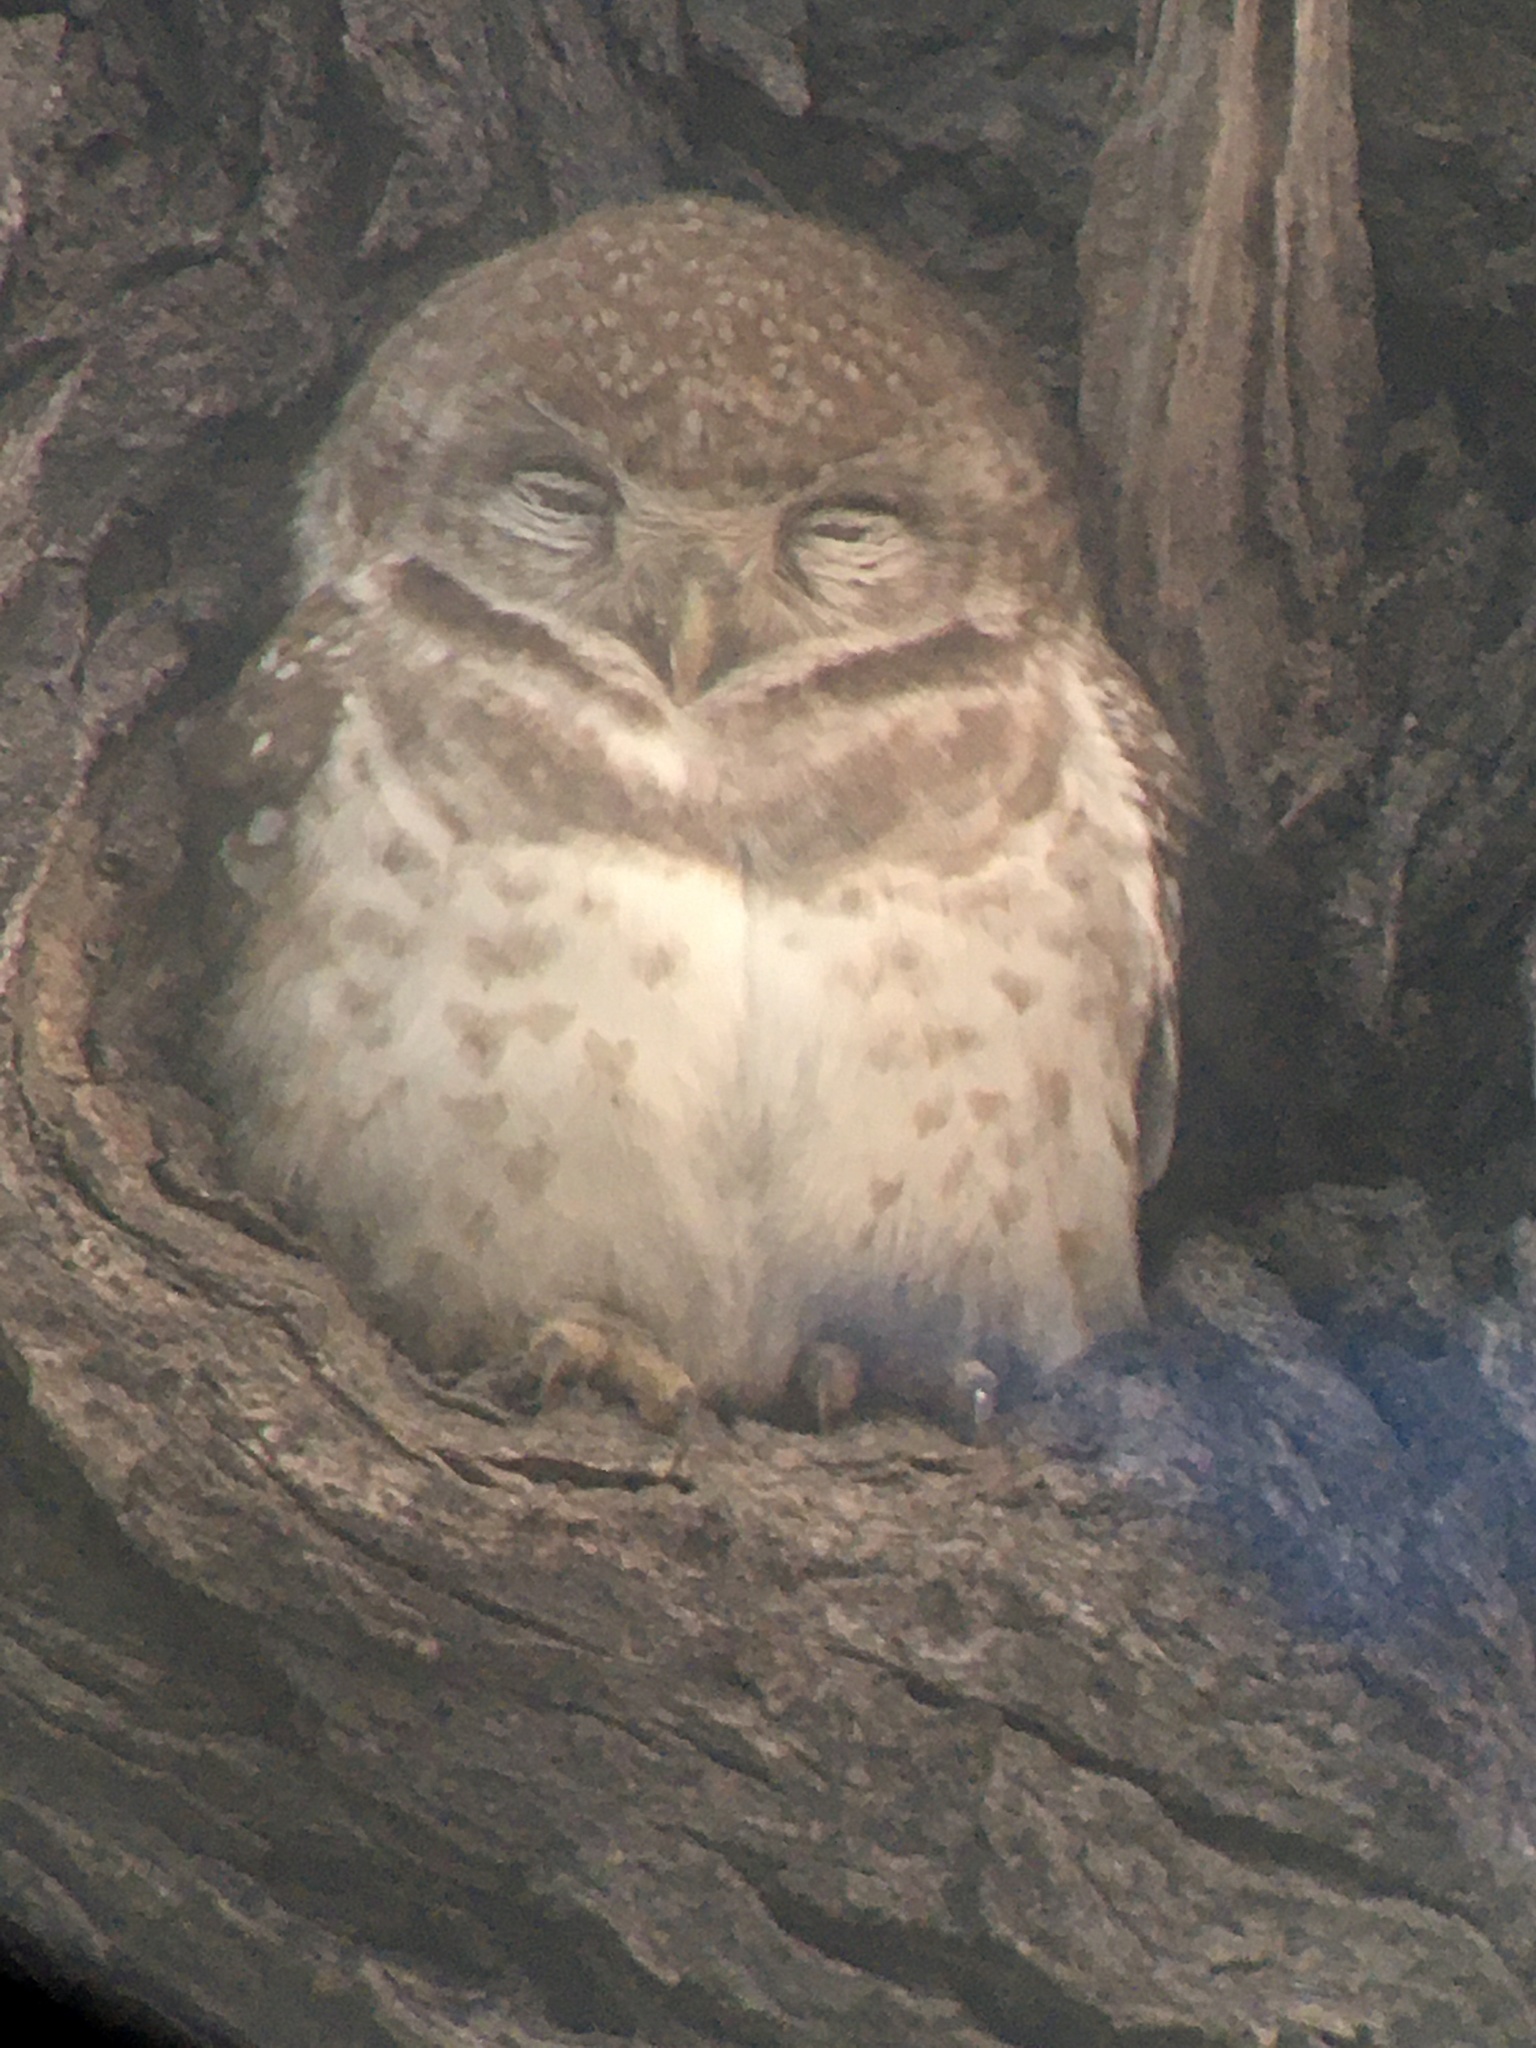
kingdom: Animalia
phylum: Chordata
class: Aves
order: Strigiformes
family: Strigidae
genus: Athene
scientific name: Athene brama
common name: Spotted owlet
